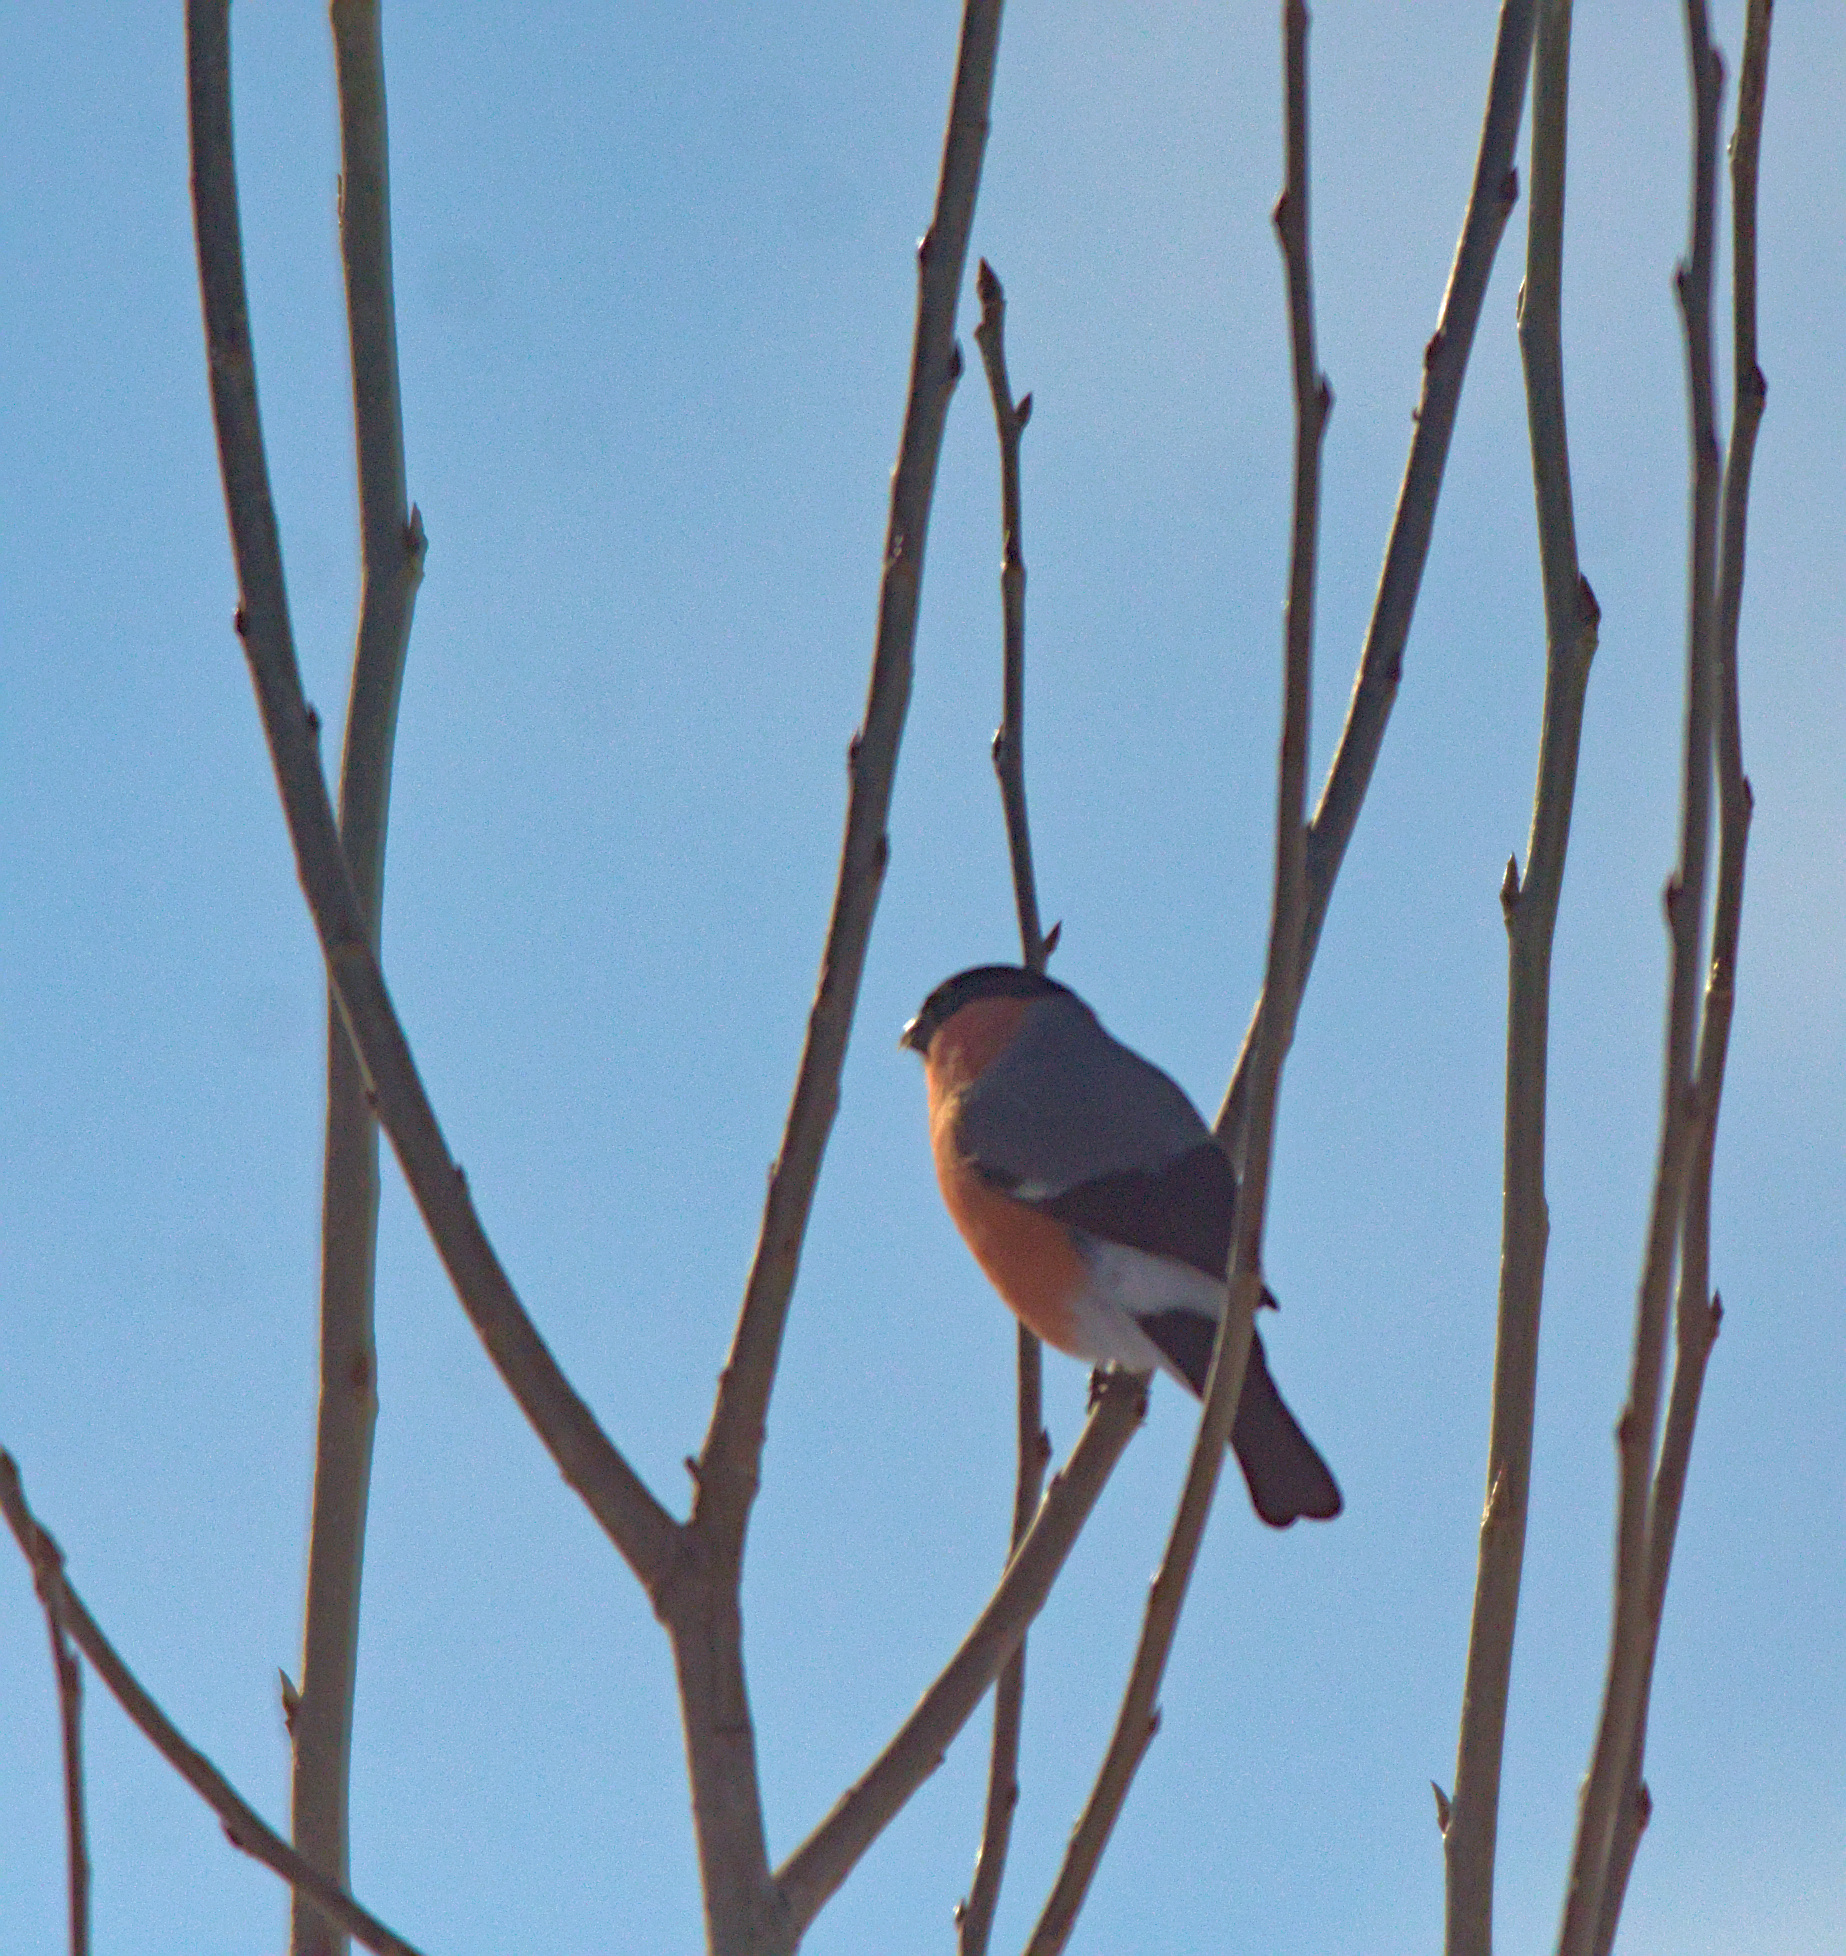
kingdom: Animalia
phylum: Chordata
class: Aves
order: Passeriformes
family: Fringillidae
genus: Pyrrhula
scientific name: Pyrrhula pyrrhula
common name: Eurasian bullfinch
